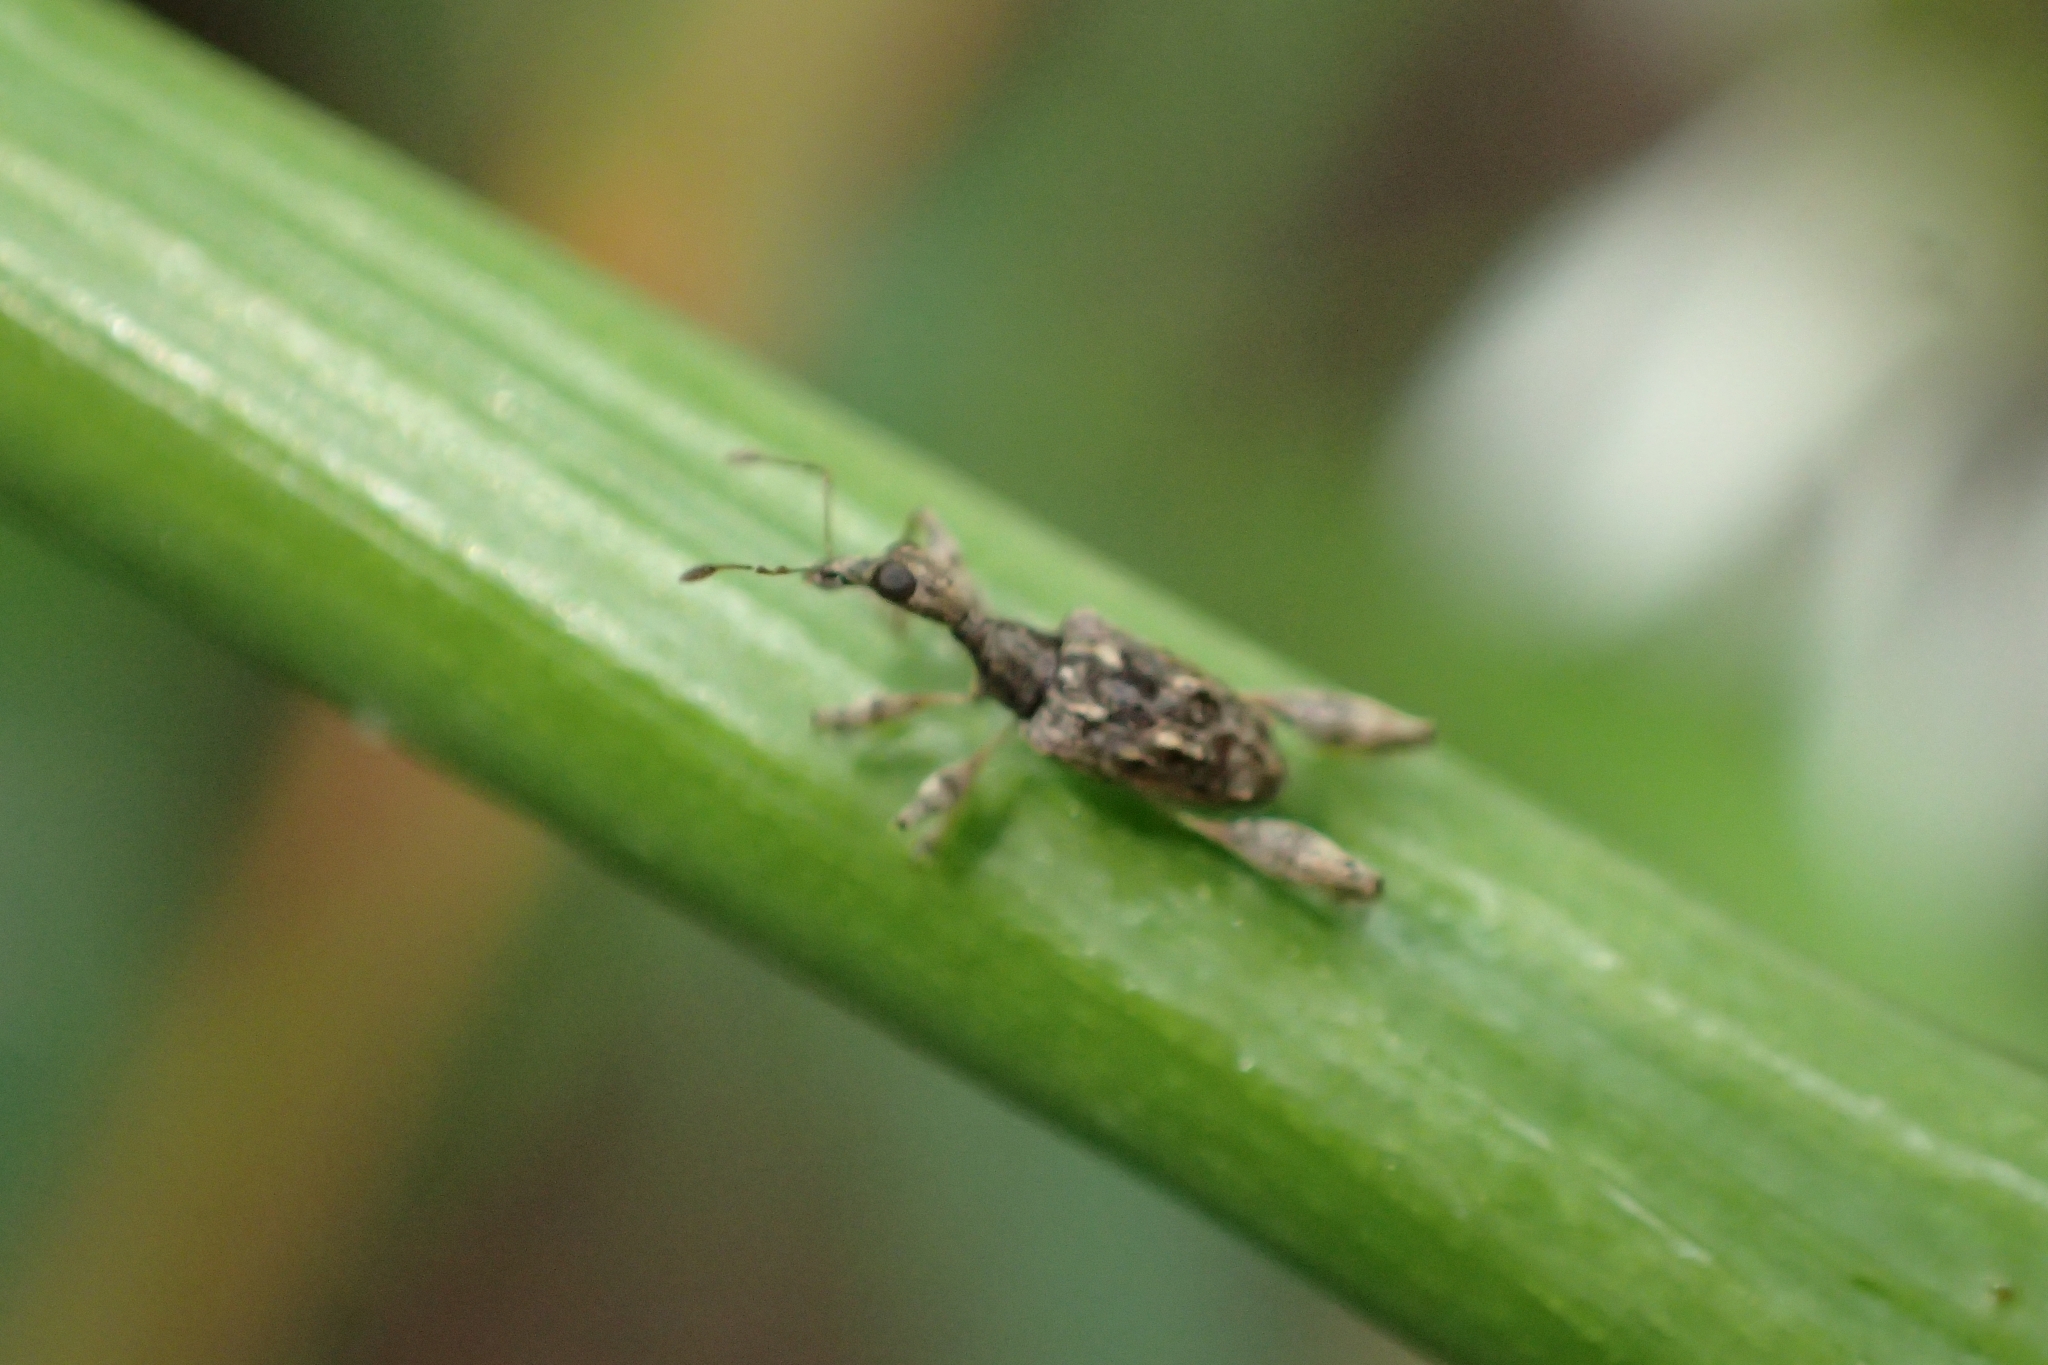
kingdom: Animalia
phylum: Arthropoda
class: Insecta
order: Coleoptera
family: Curculionidae
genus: Stephanorhynchus
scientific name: Stephanorhynchus lawsoni
